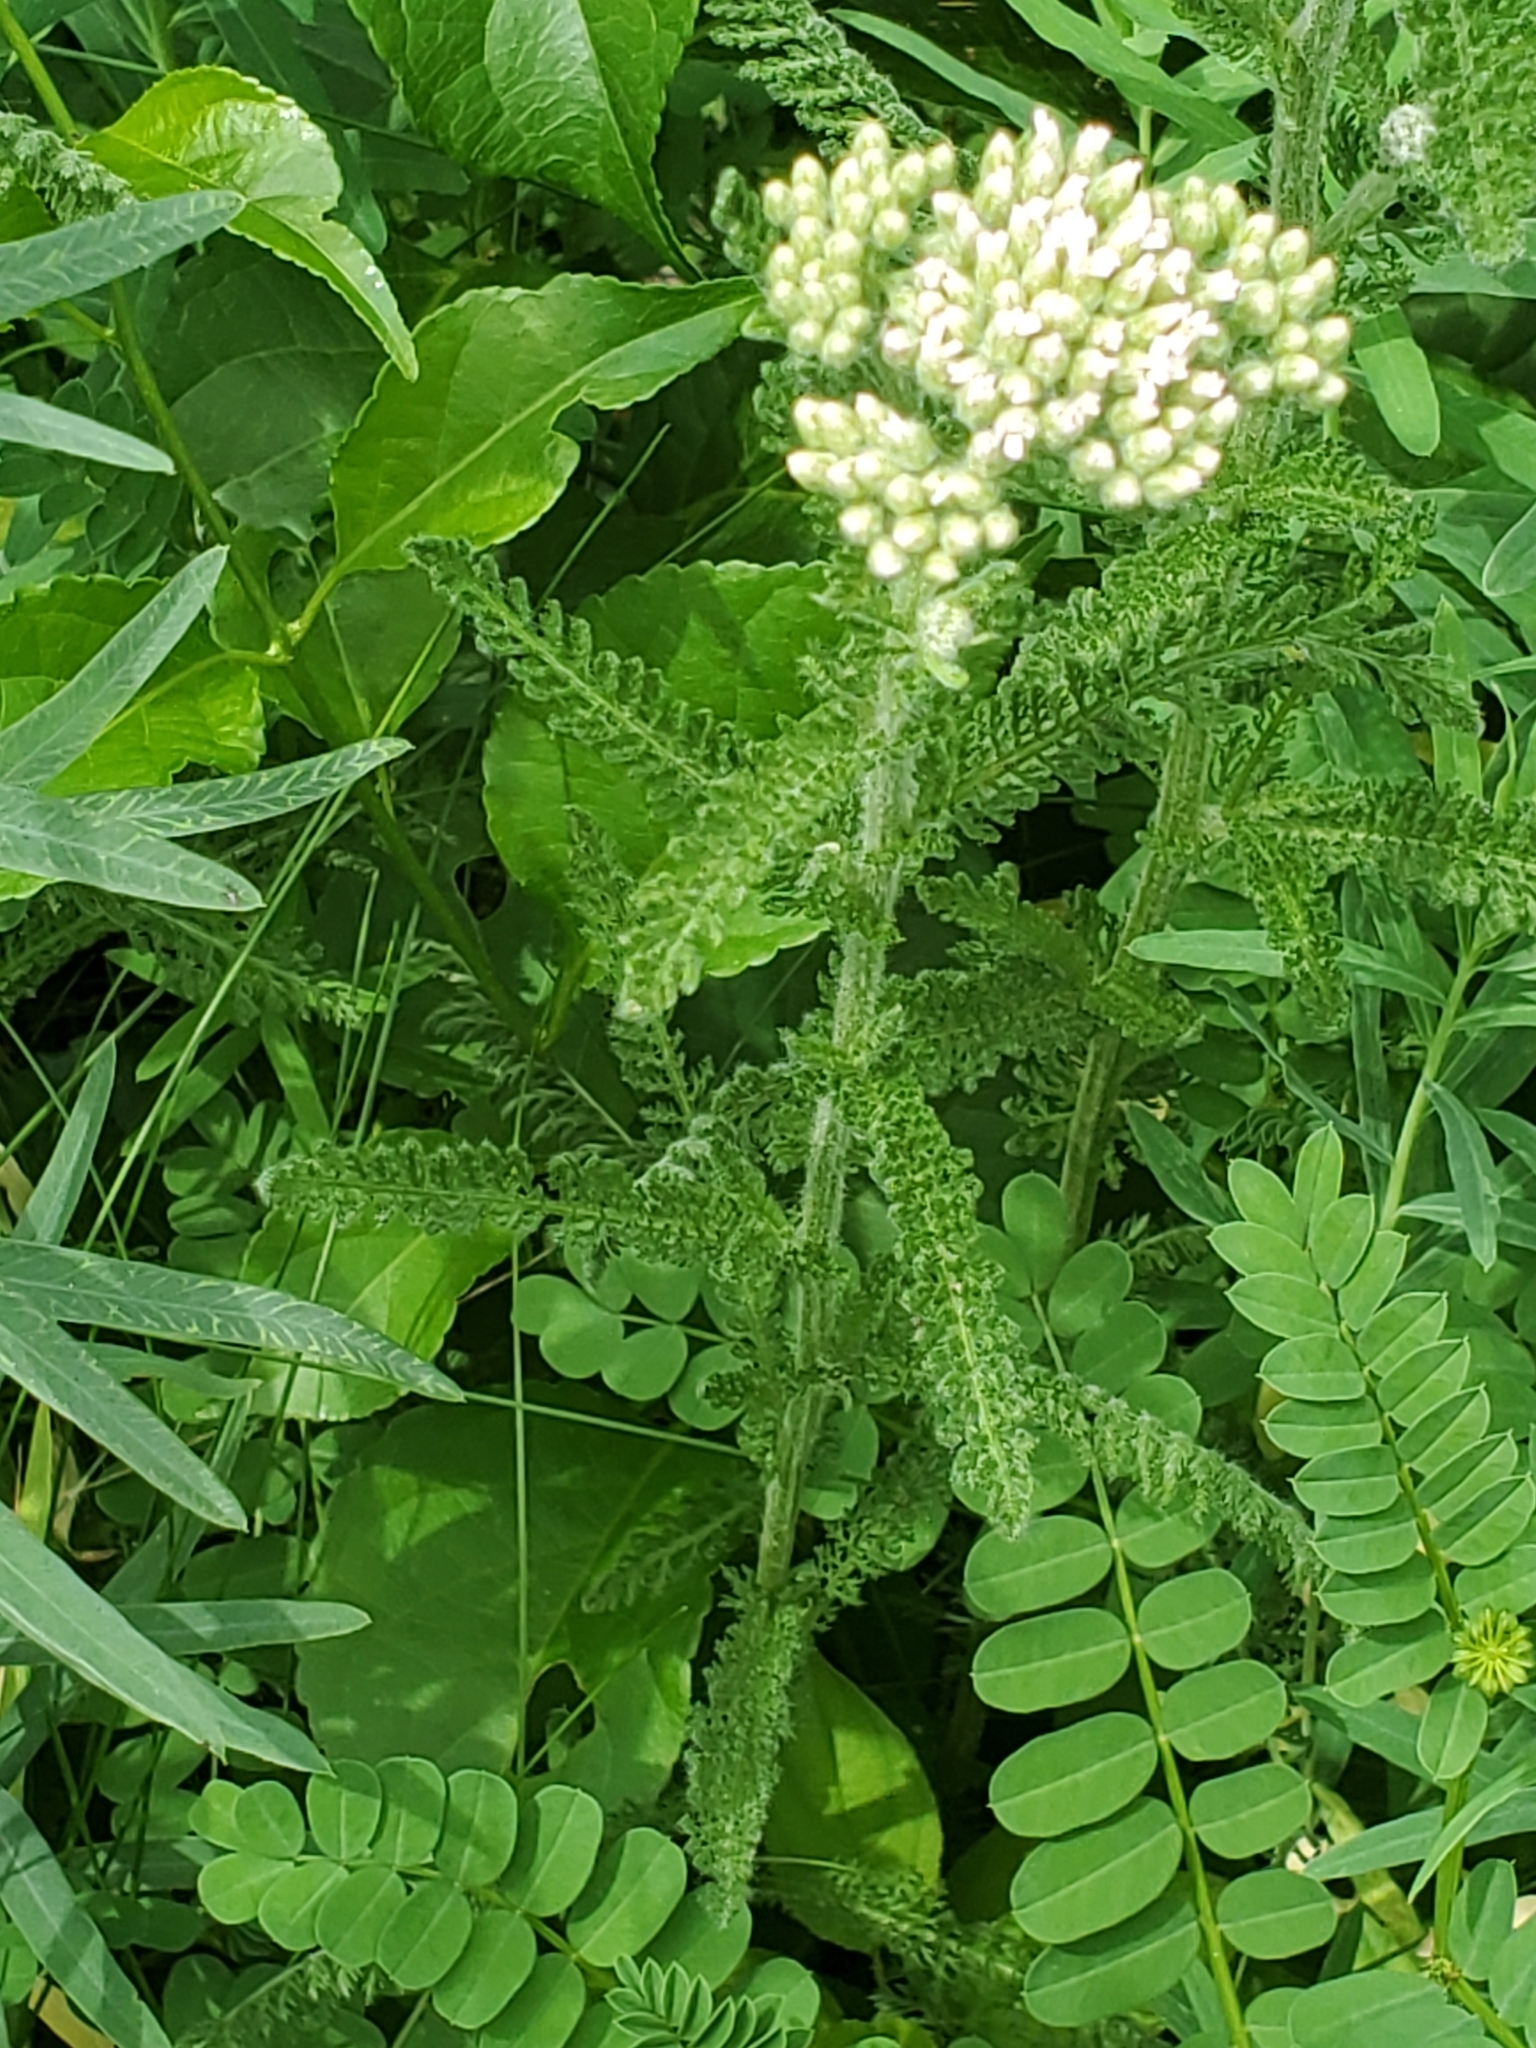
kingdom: Plantae
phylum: Tracheophyta
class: Magnoliopsida
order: Asterales
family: Asteraceae
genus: Achillea
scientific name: Achillea millefolium
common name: Yarrow
